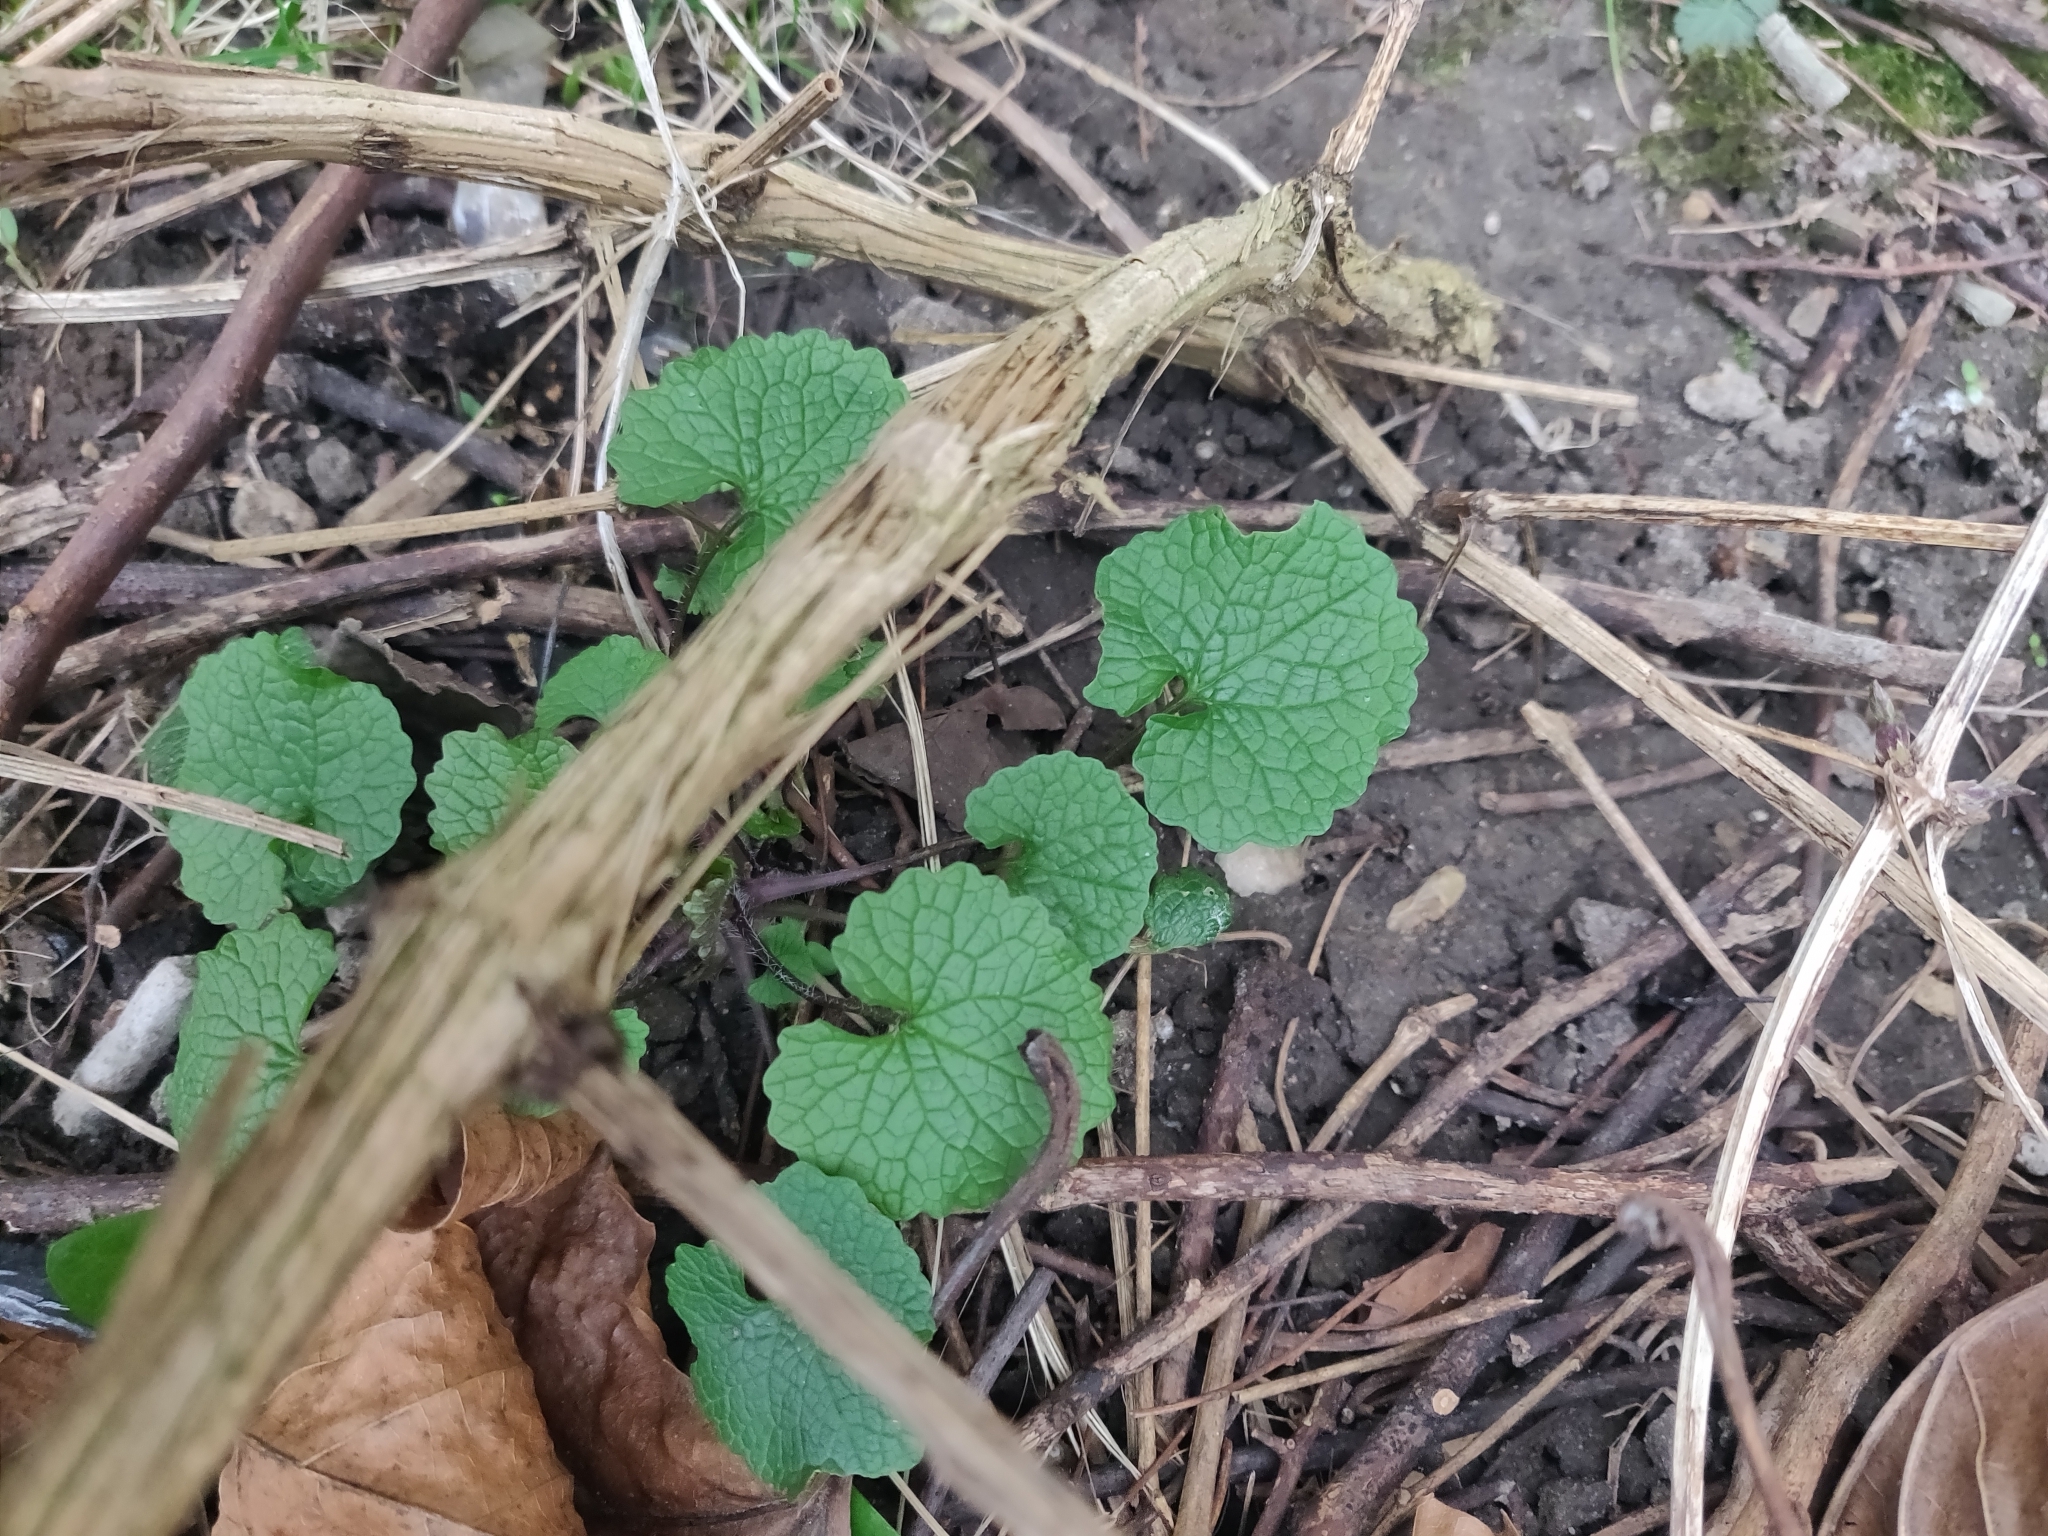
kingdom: Plantae
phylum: Tracheophyta
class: Magnoliopsida
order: Brassicales
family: Brassicaceae
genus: Alliaria
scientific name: Alliaria petiolata
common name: Garlic mustard
